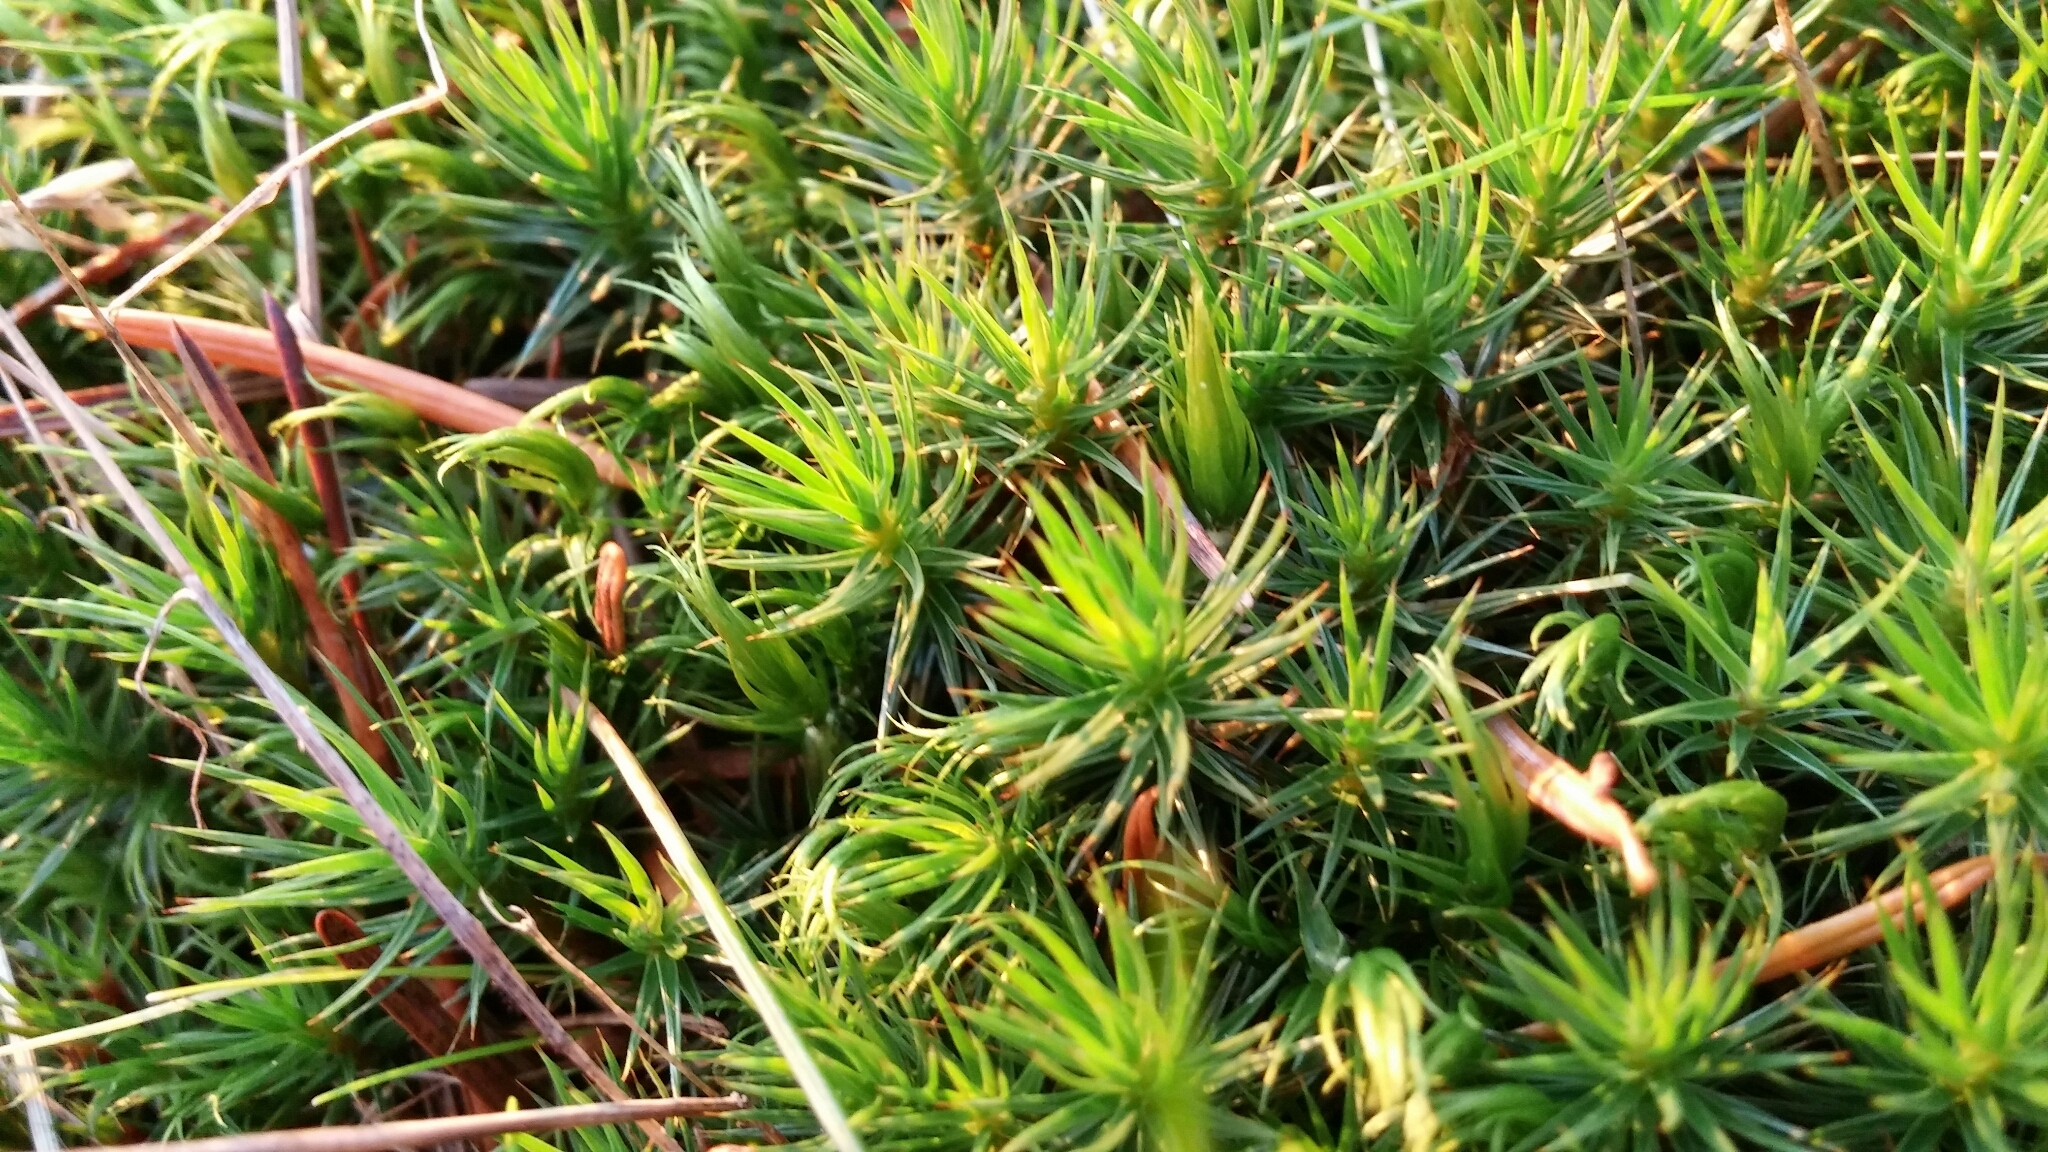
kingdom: Plantae
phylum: Bryophyta
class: Polytrichopsida
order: Polytrichales
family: Polytrichaceae
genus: Polytrichum
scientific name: Polytrichum juniperinum
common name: Juniper haircap moss
